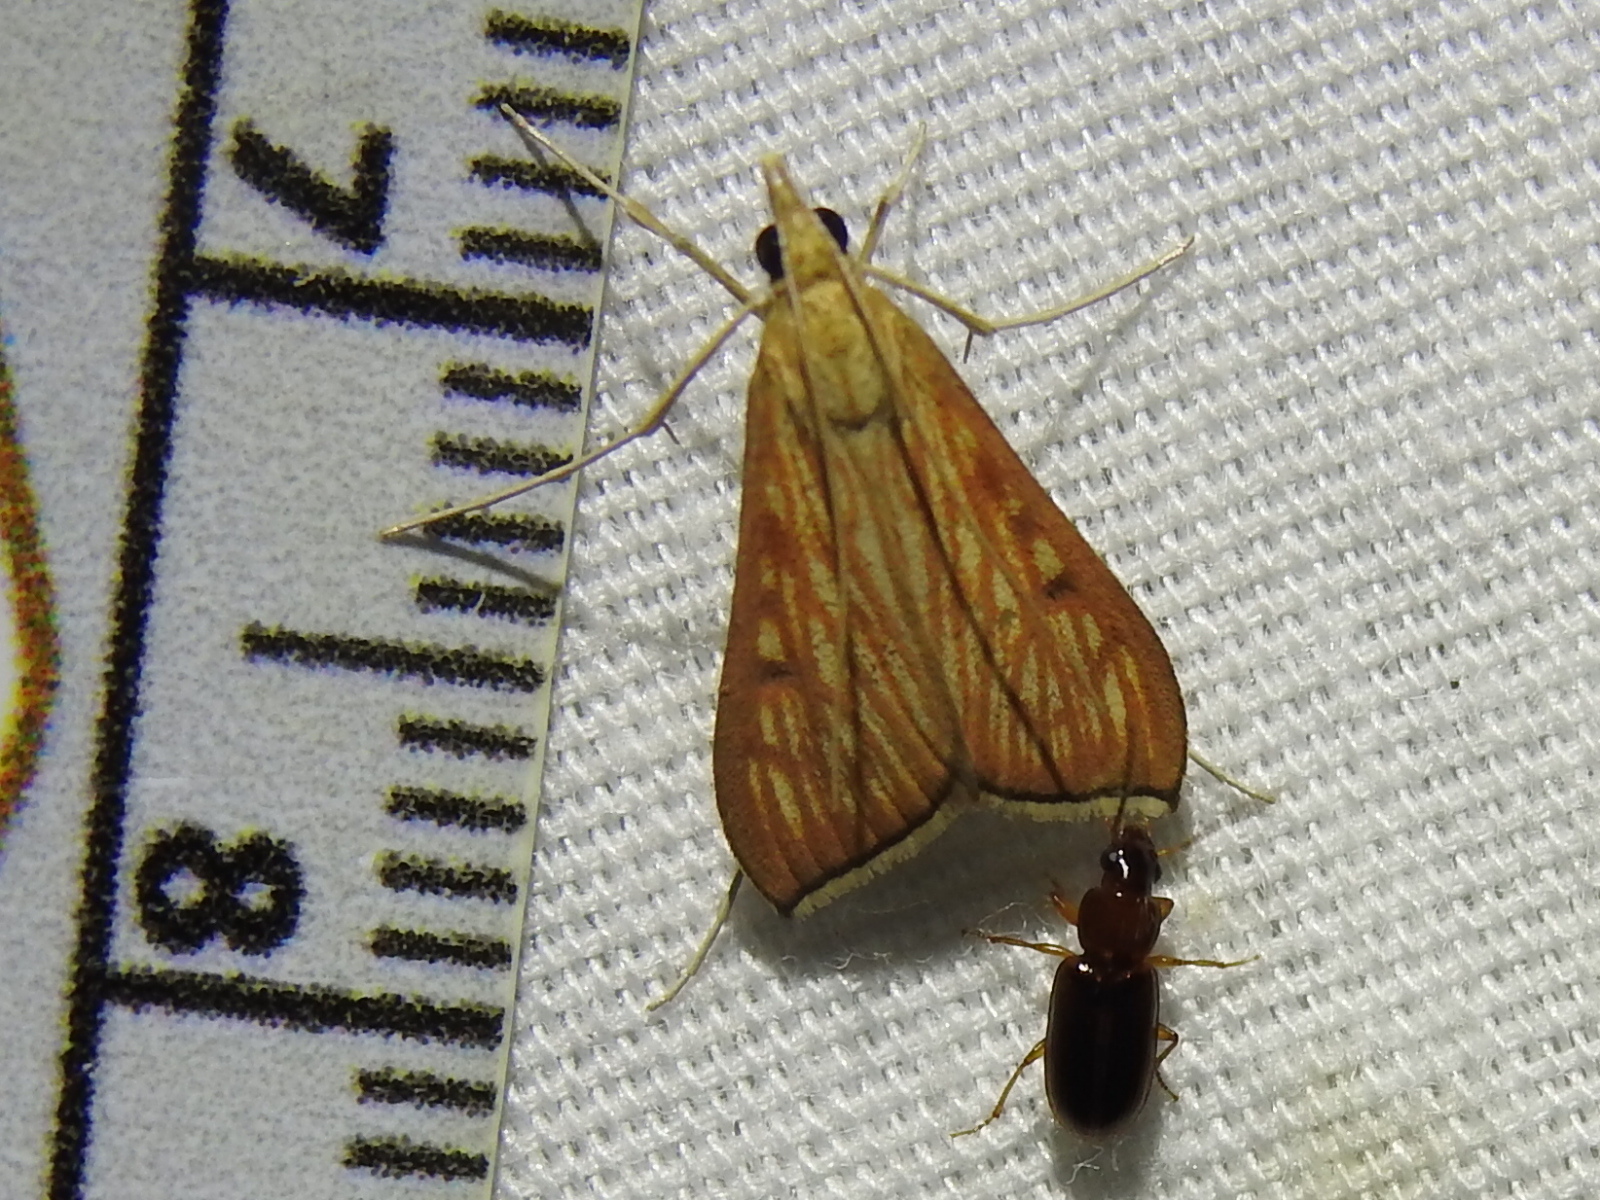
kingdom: Animalia
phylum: Arthropoda
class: Insecta
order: Lepidoptera
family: Crambidae
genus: Antigastra
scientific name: Antigastra catalaunalis
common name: Spanish dot
